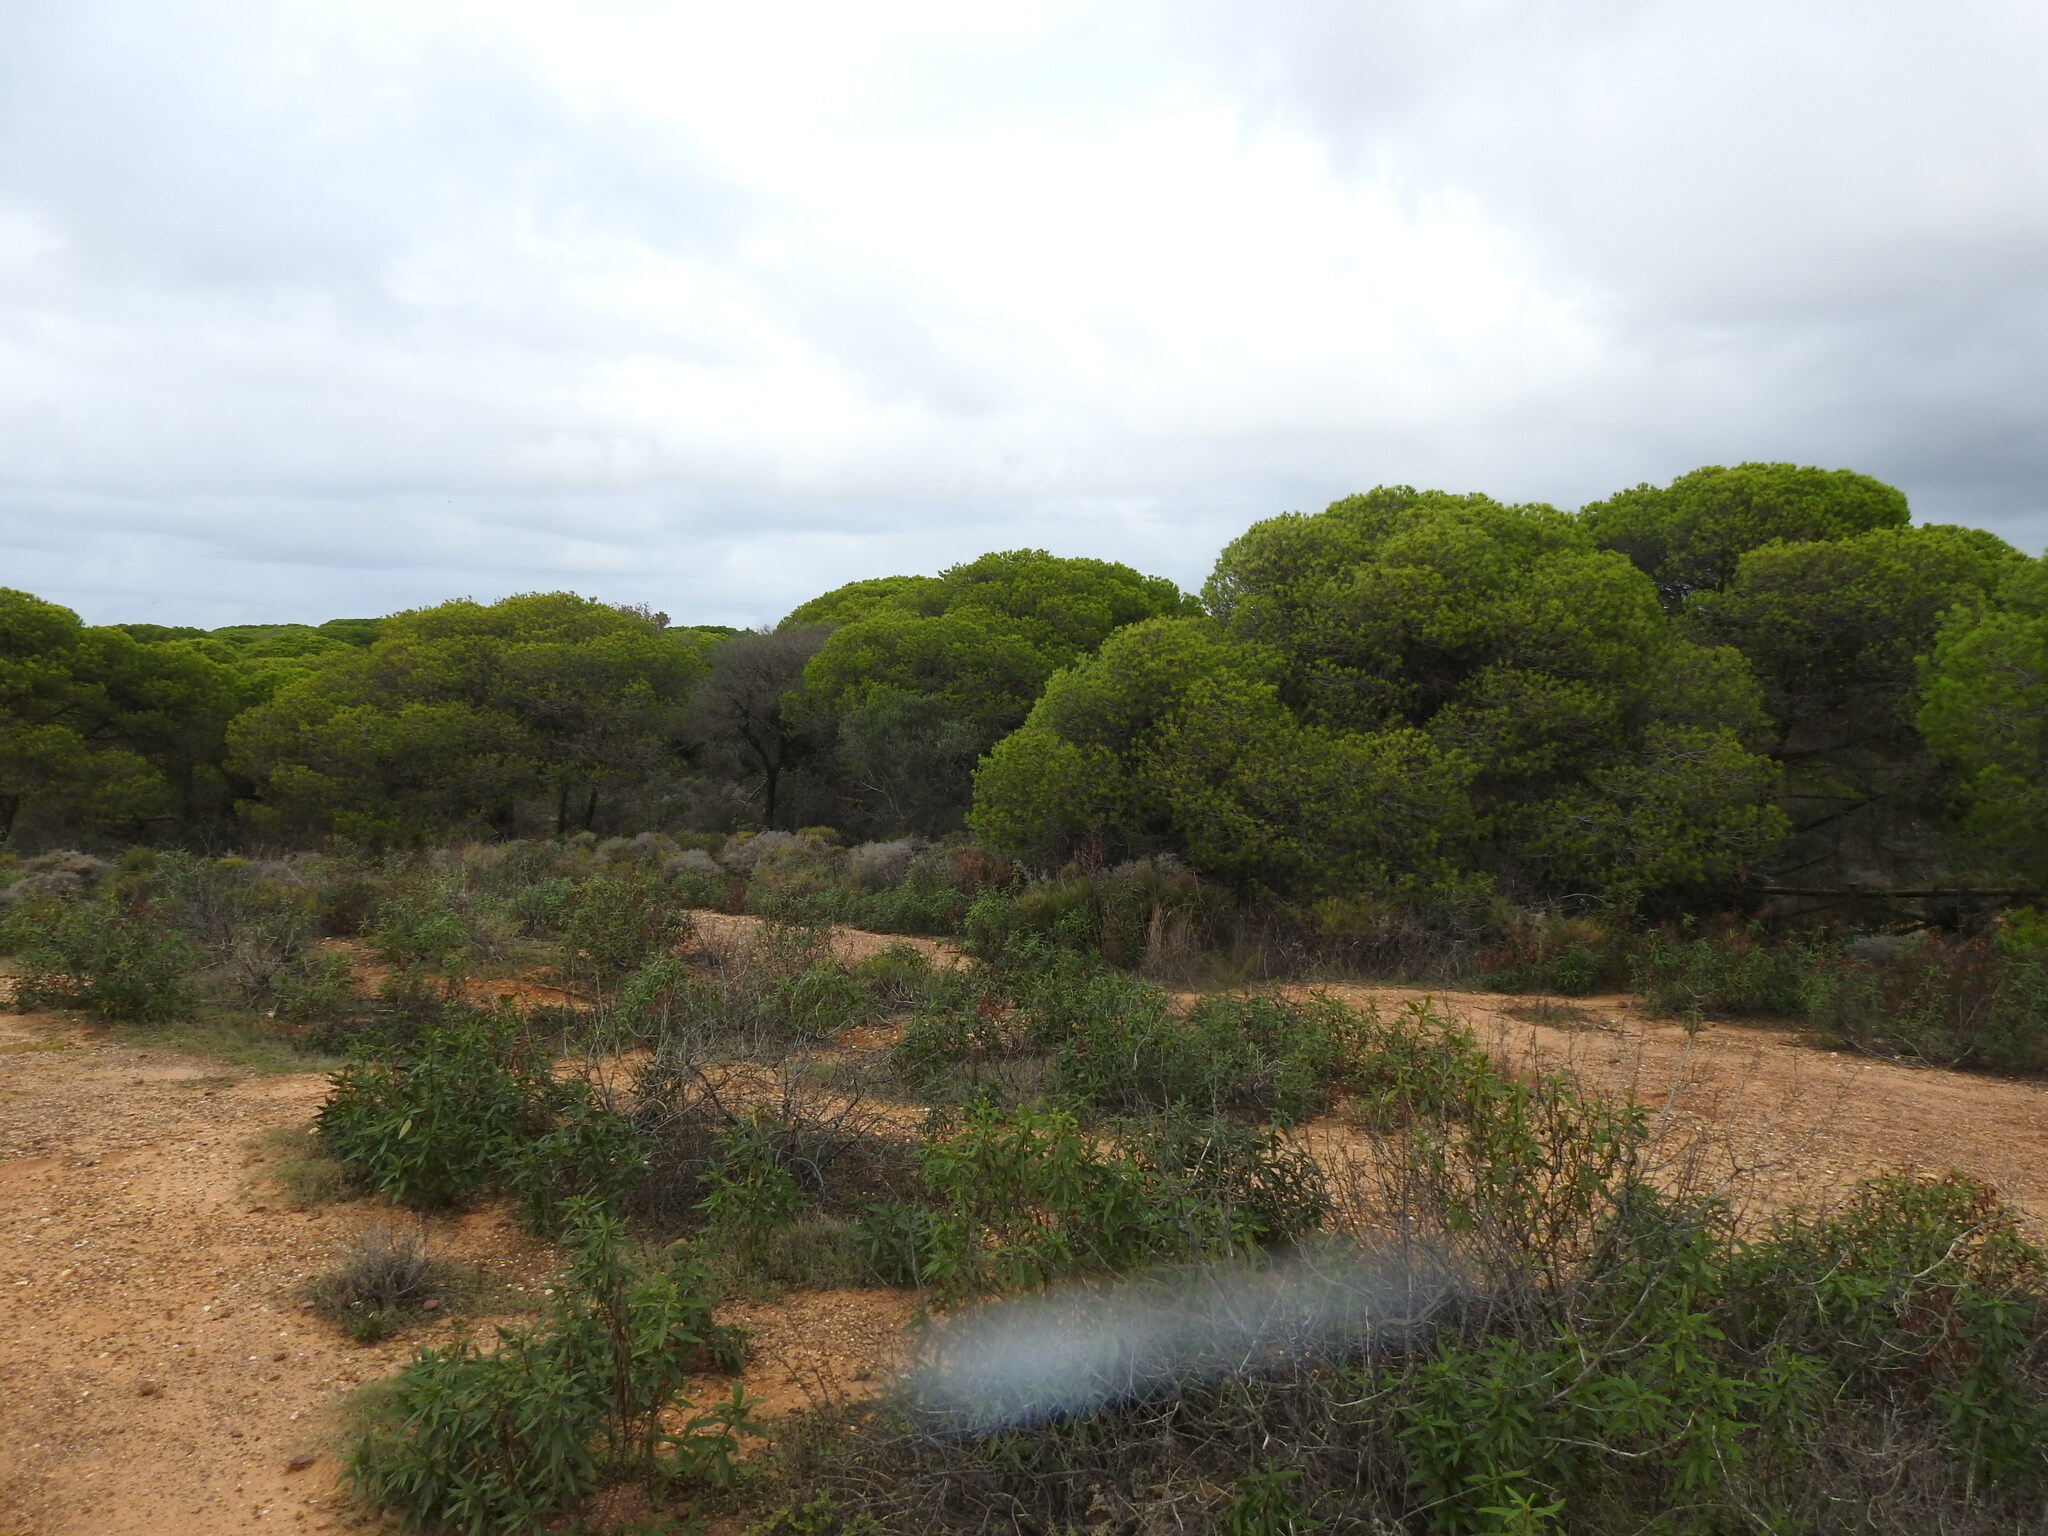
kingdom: Plantae
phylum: Tracheophyta
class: Pinopsida
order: Pinales
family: Pinaceae
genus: Pinus
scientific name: Pinus pinea
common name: Italian stone pine
